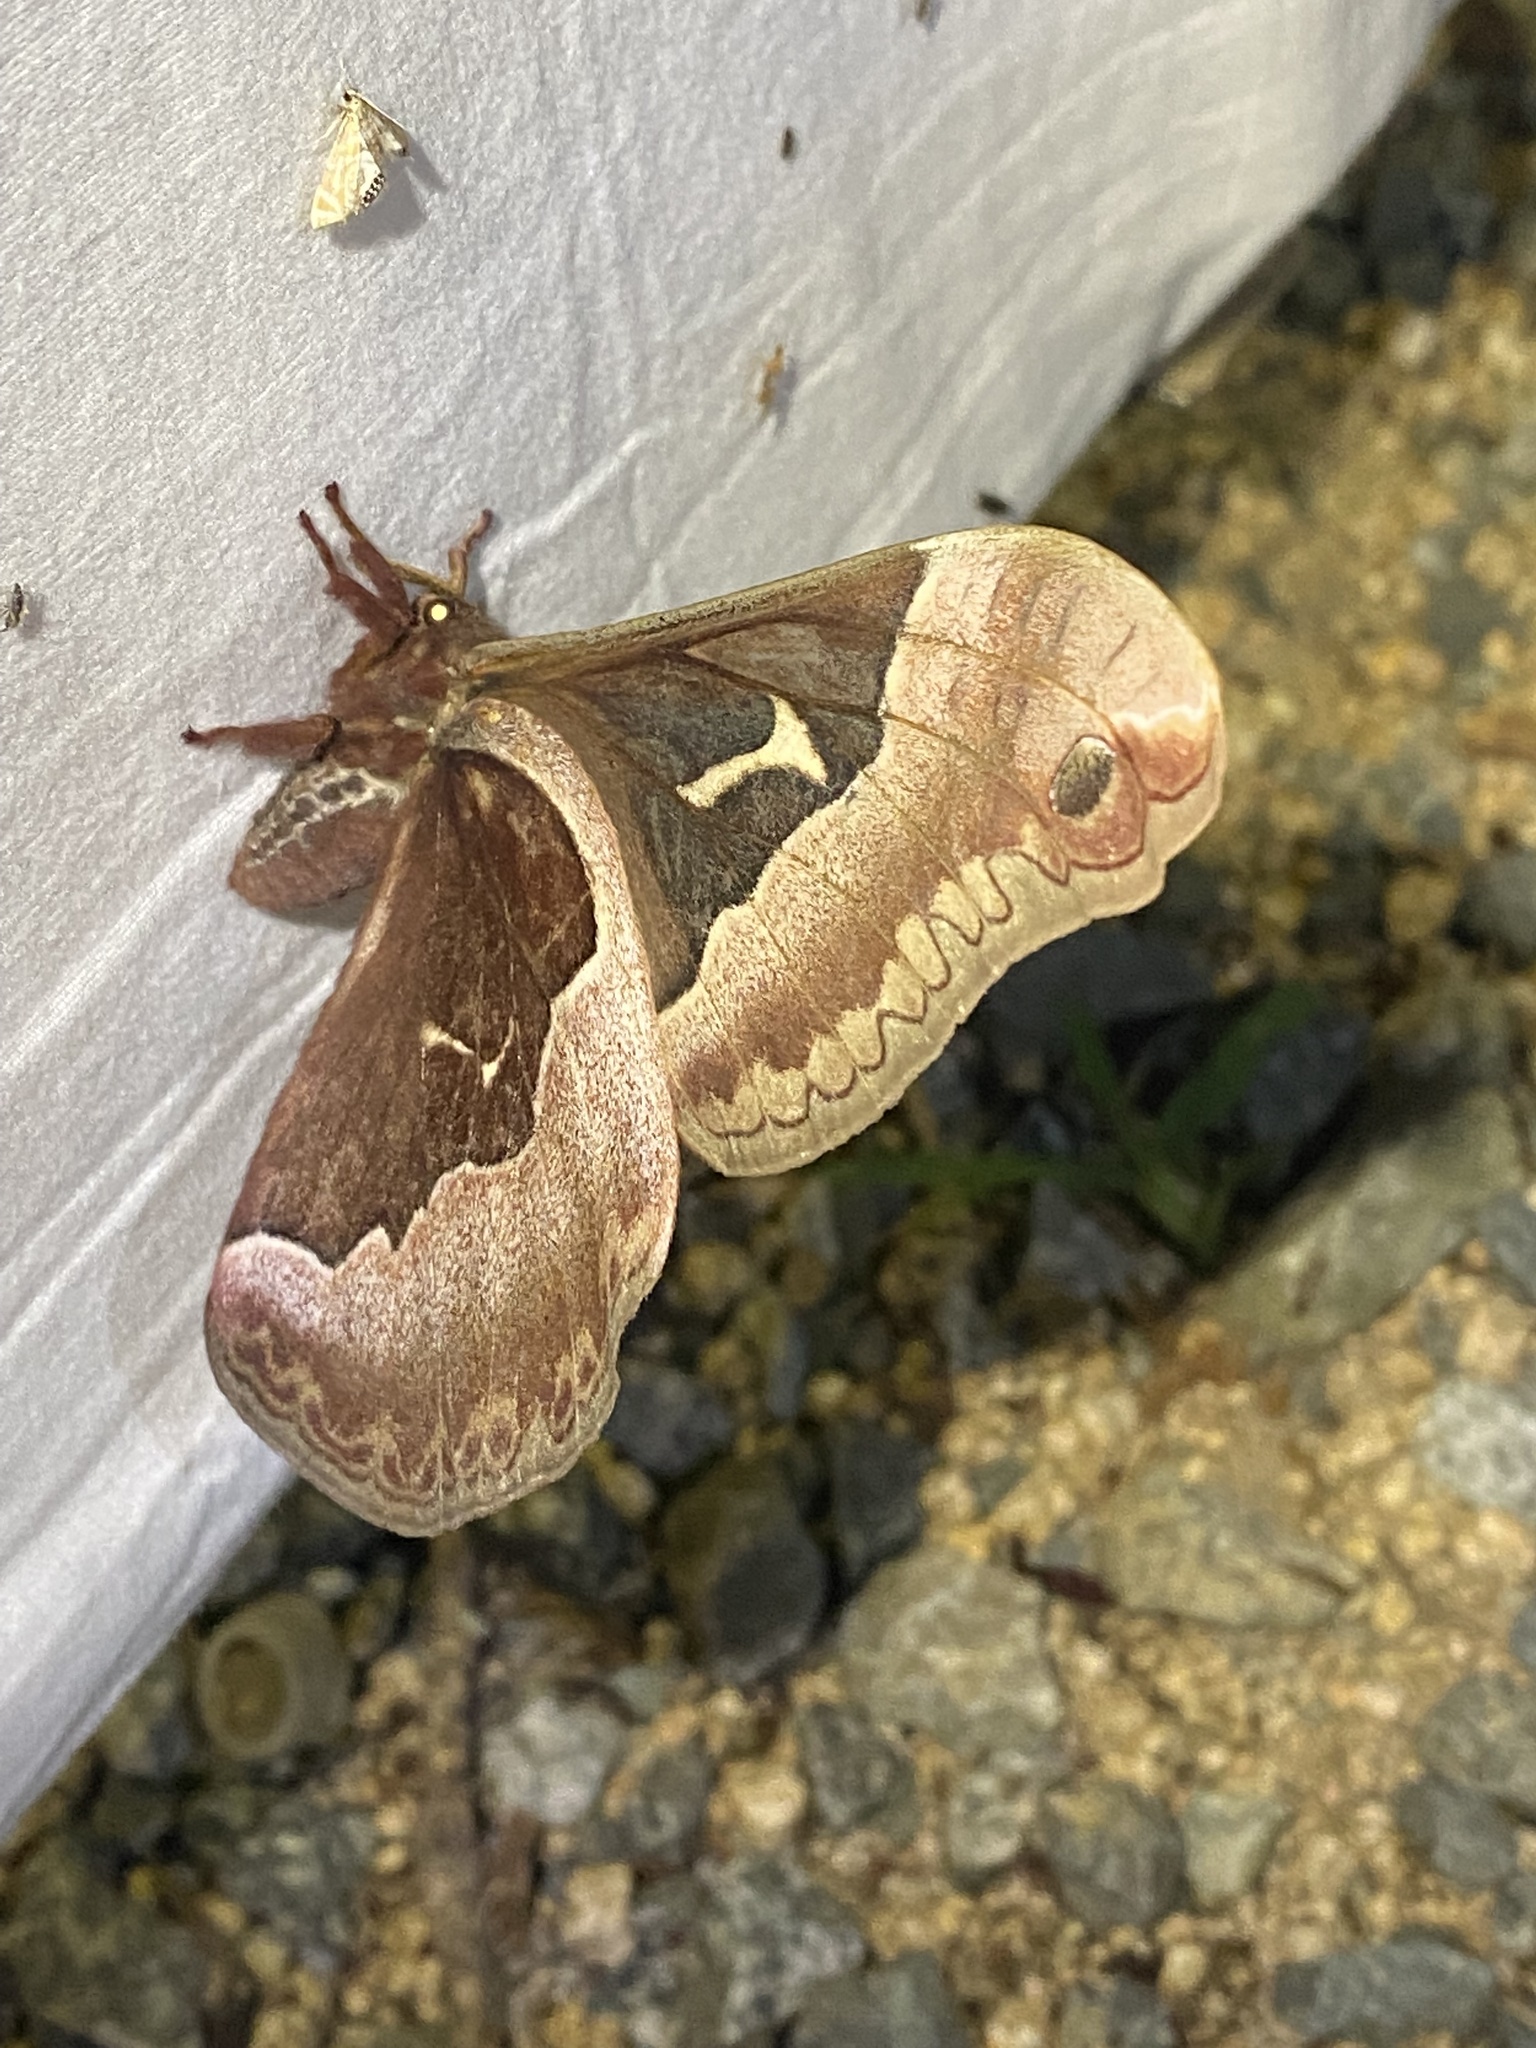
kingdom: Animalia
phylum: Arthropoda
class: Insecta
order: Lepidoptera
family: Saturniidae
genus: Callosamia
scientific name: Callosamia angulifera
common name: Tulip tree silkmoth
